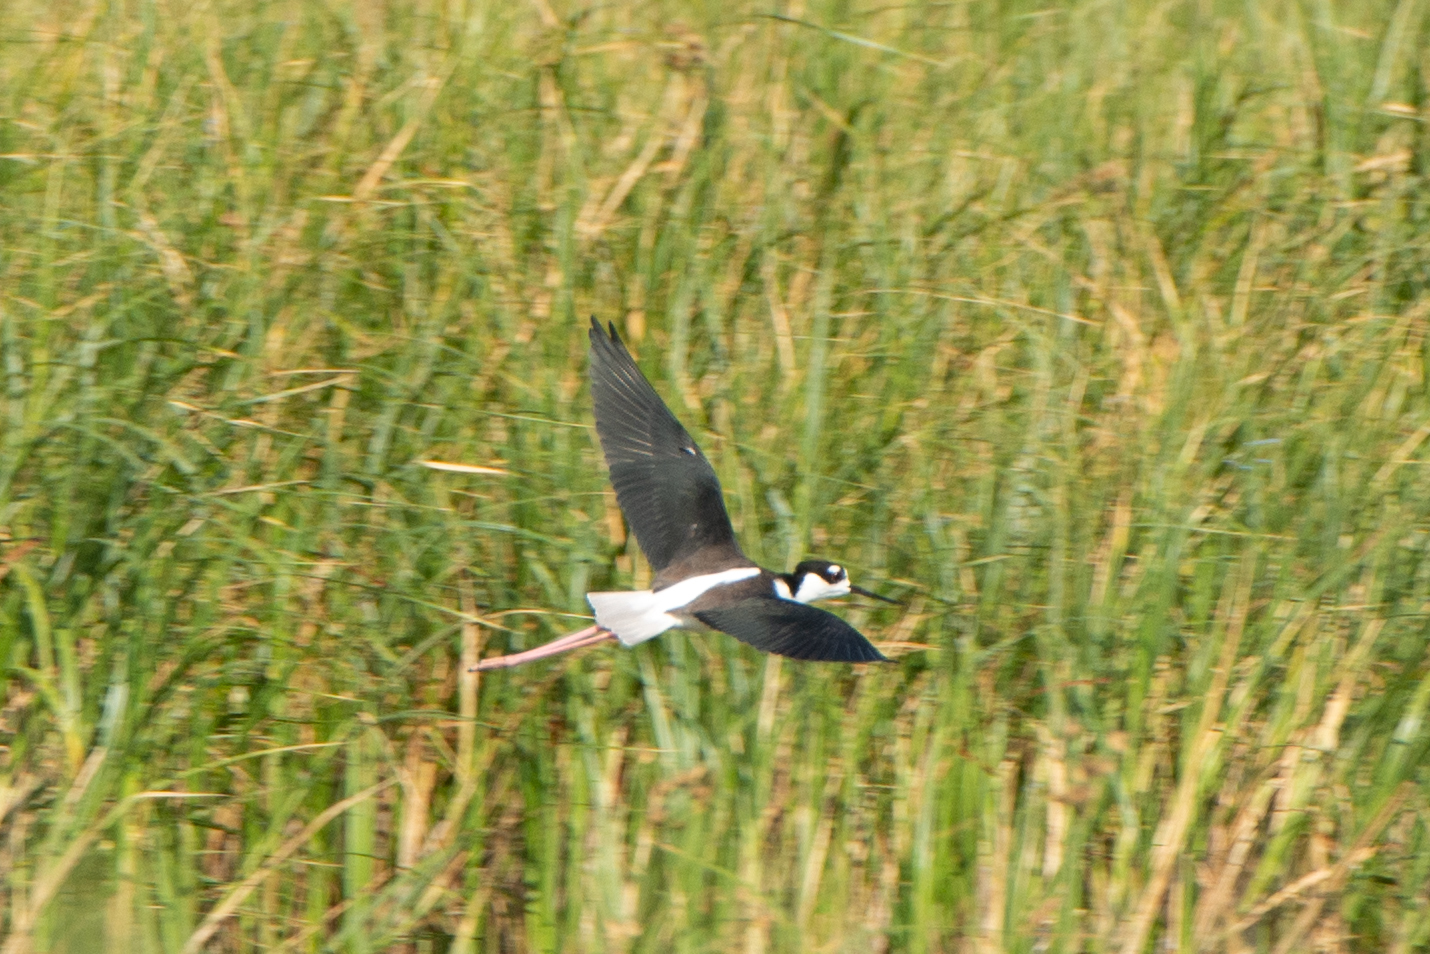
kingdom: Animalia
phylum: Chordata
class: Aves
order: Charadriiformes
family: Recurvirostridae
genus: Himantopus
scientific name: Himantopus mexicanus
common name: Black-necked stilt
